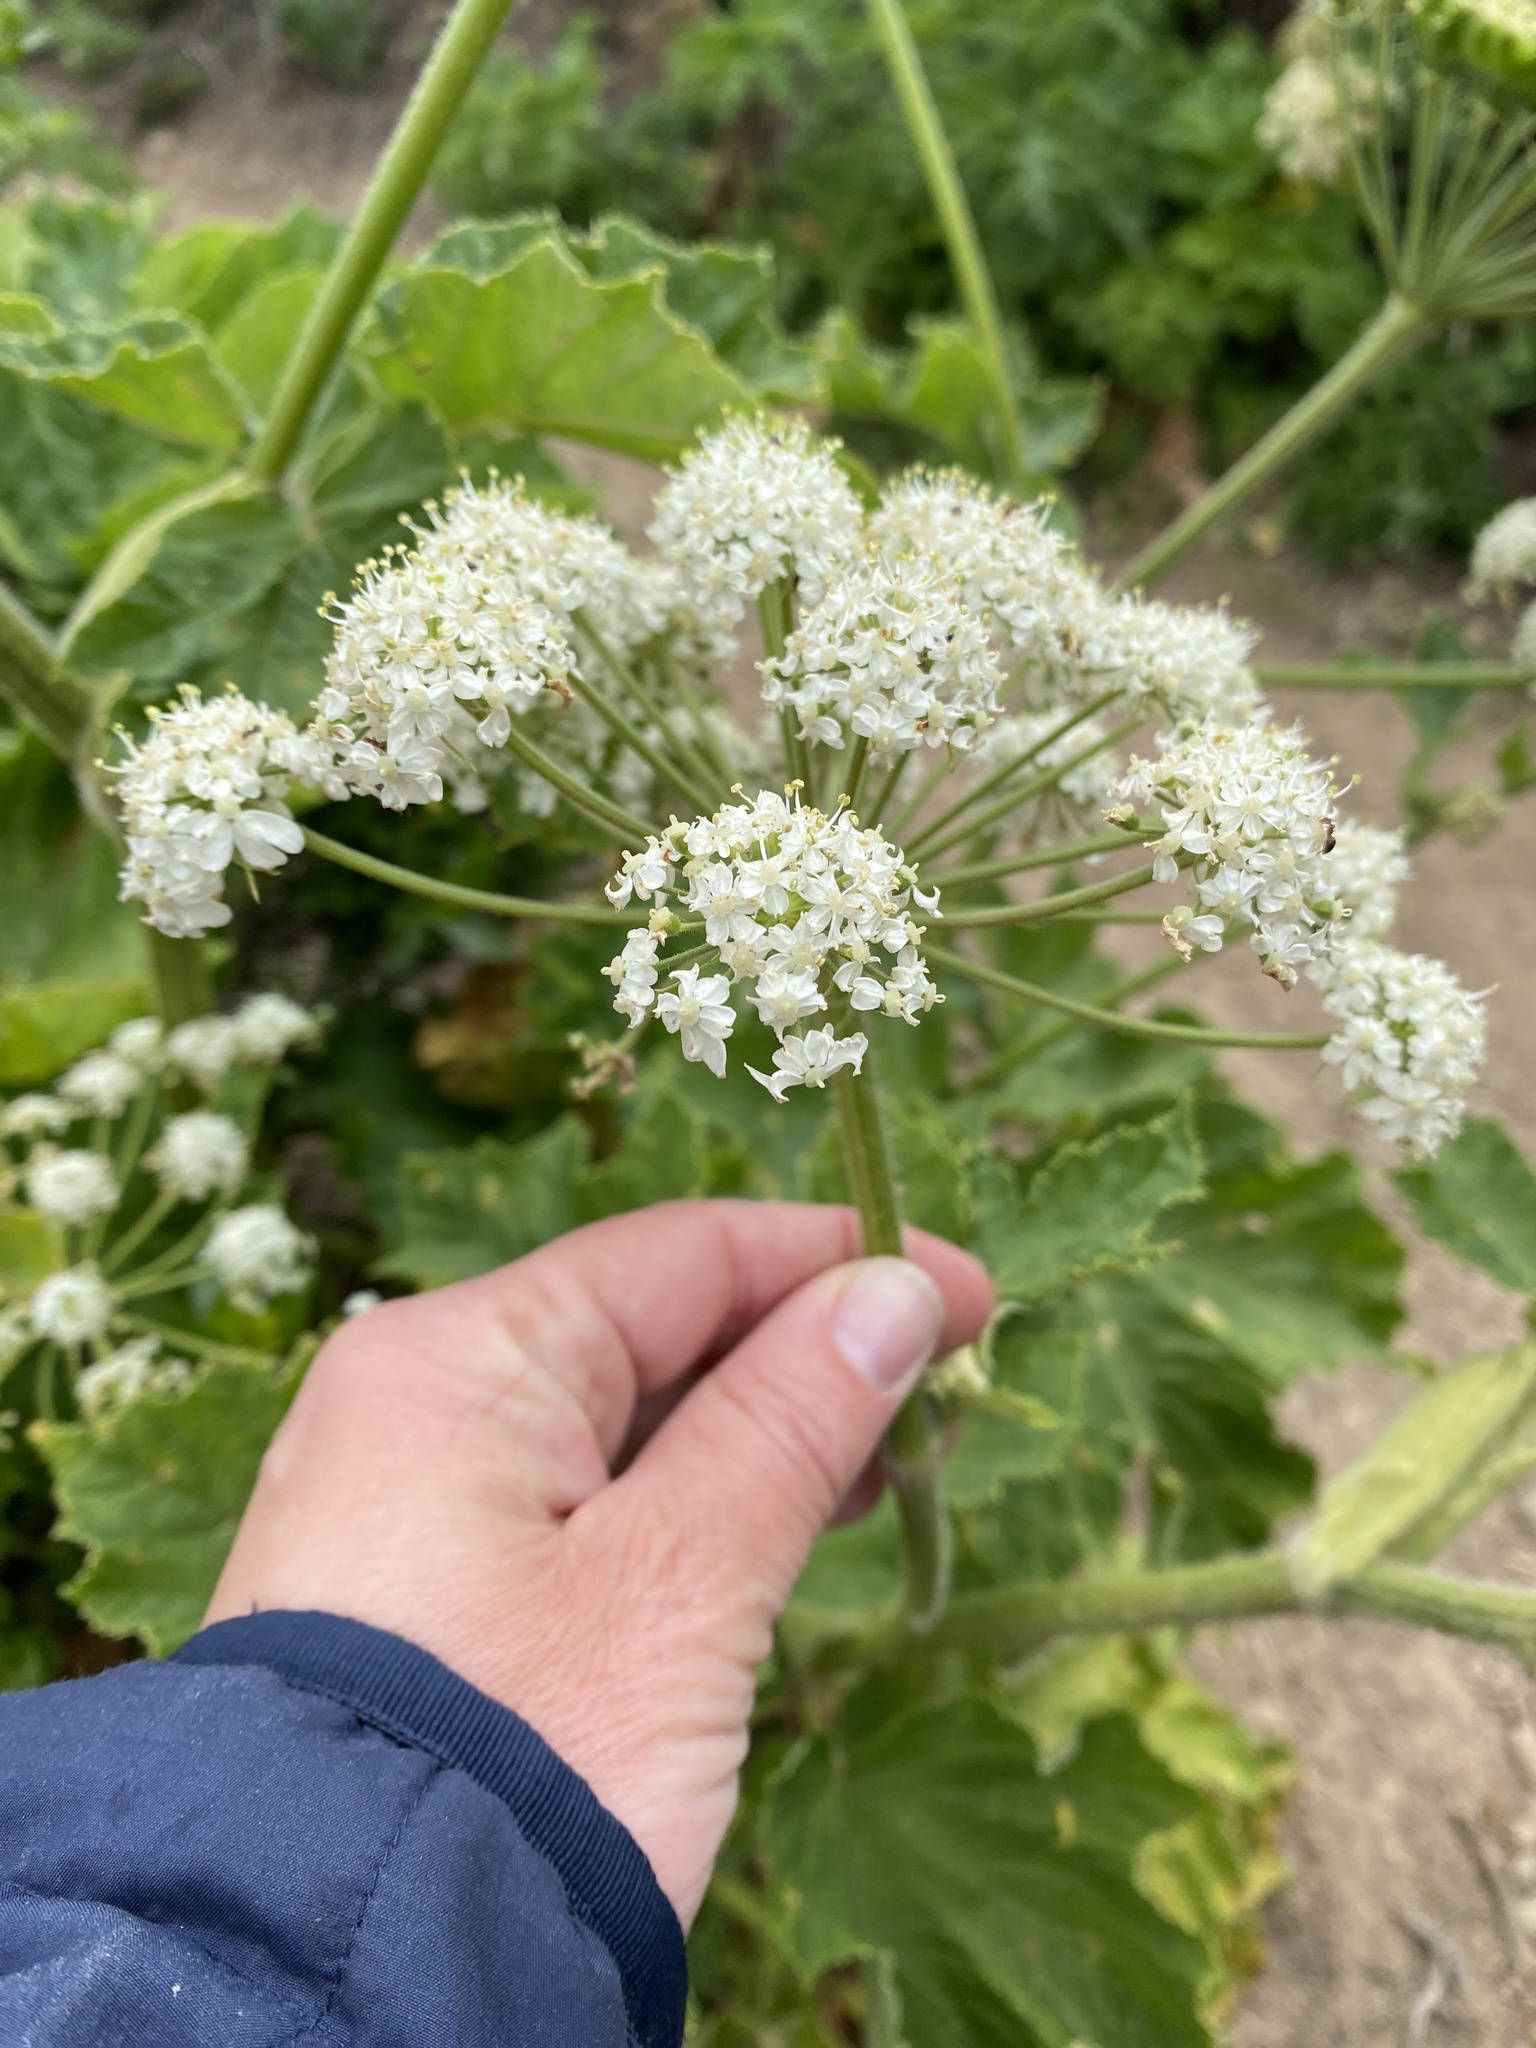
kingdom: Plantae
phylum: Tracheophyta
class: Magnoliopsida
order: Apiales
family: Apiaceae
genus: Heracleum
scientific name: Heracleum maximum
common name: American cow parsnip
